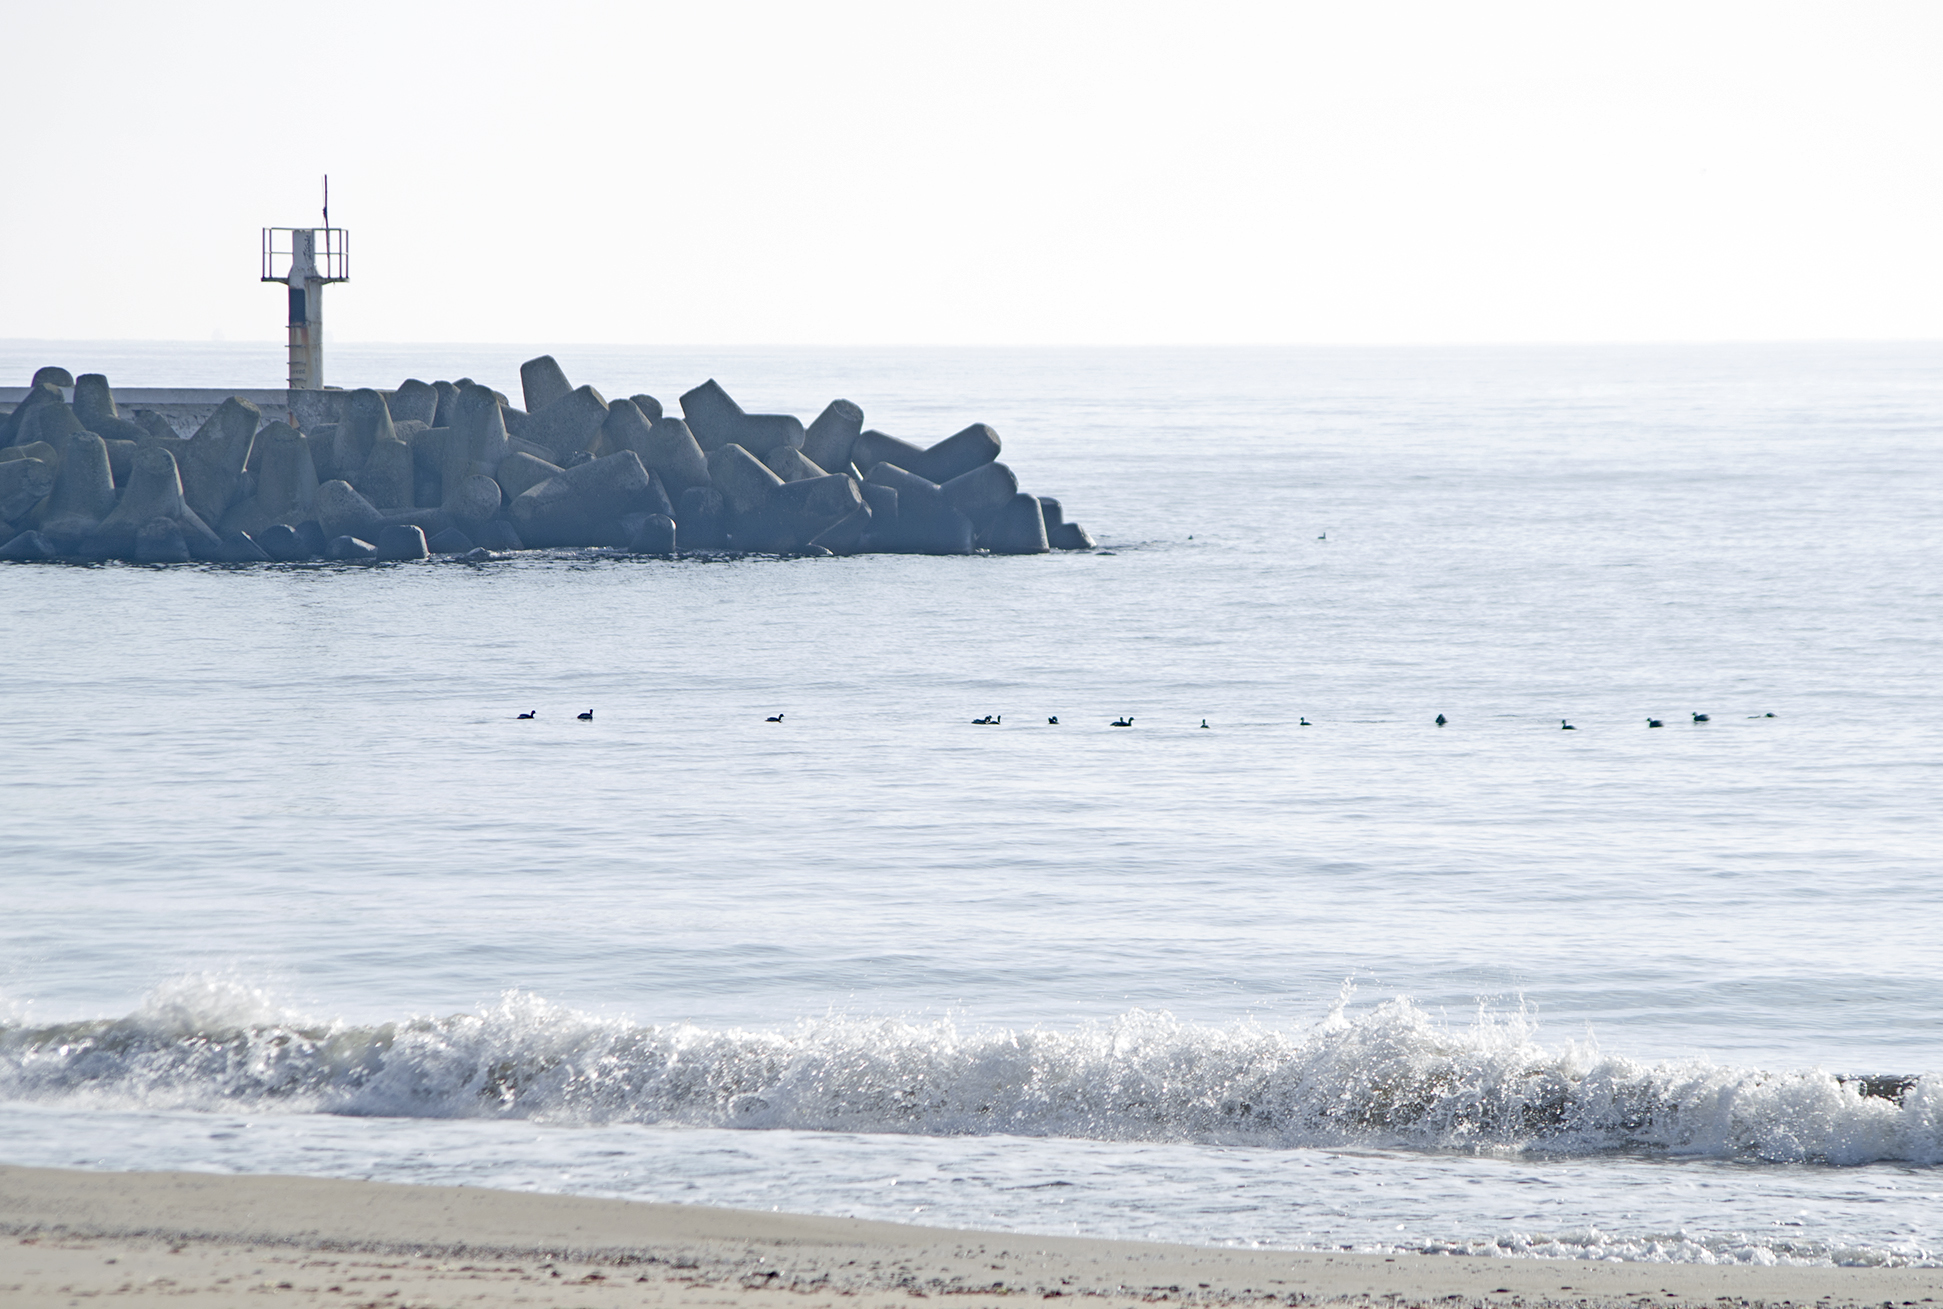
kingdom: Animalia
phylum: Chordata
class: Aves
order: Podicipediformes
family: Podicipedidae
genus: Podiceps
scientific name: Podiceps nigricollis
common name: Black-necked grebe
